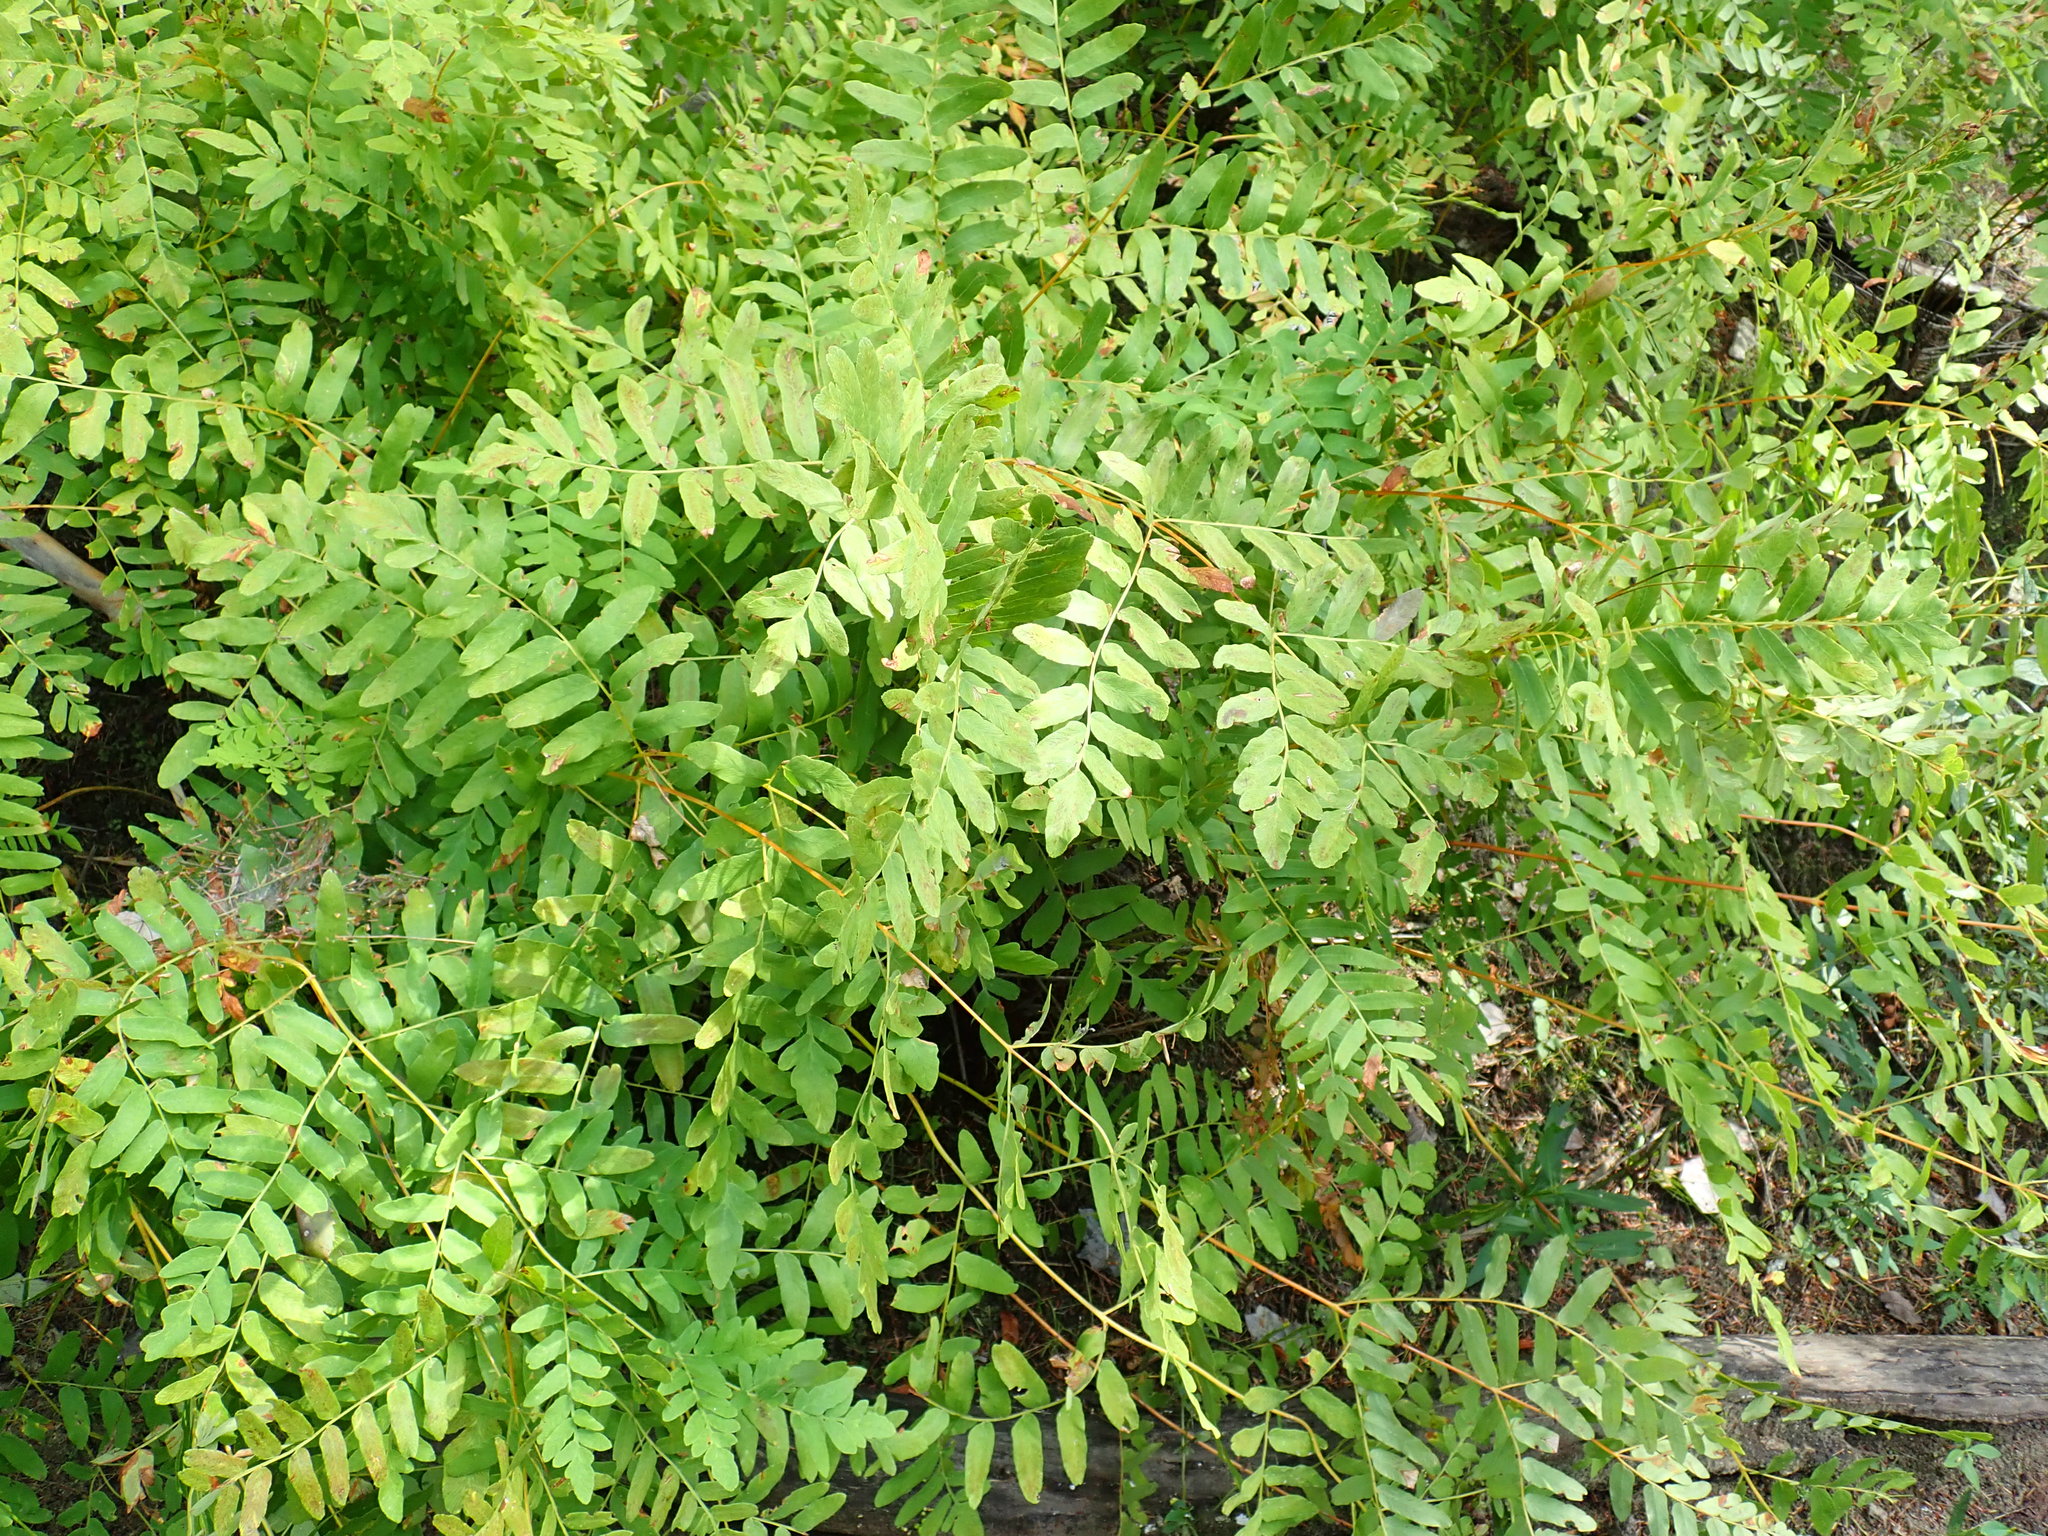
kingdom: Plantae
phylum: Tracheophyta
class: Polypodiopsida
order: Osmundales
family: Osmundaceae
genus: Osmunda
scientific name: Osmunda spectabilis
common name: American royal fern
